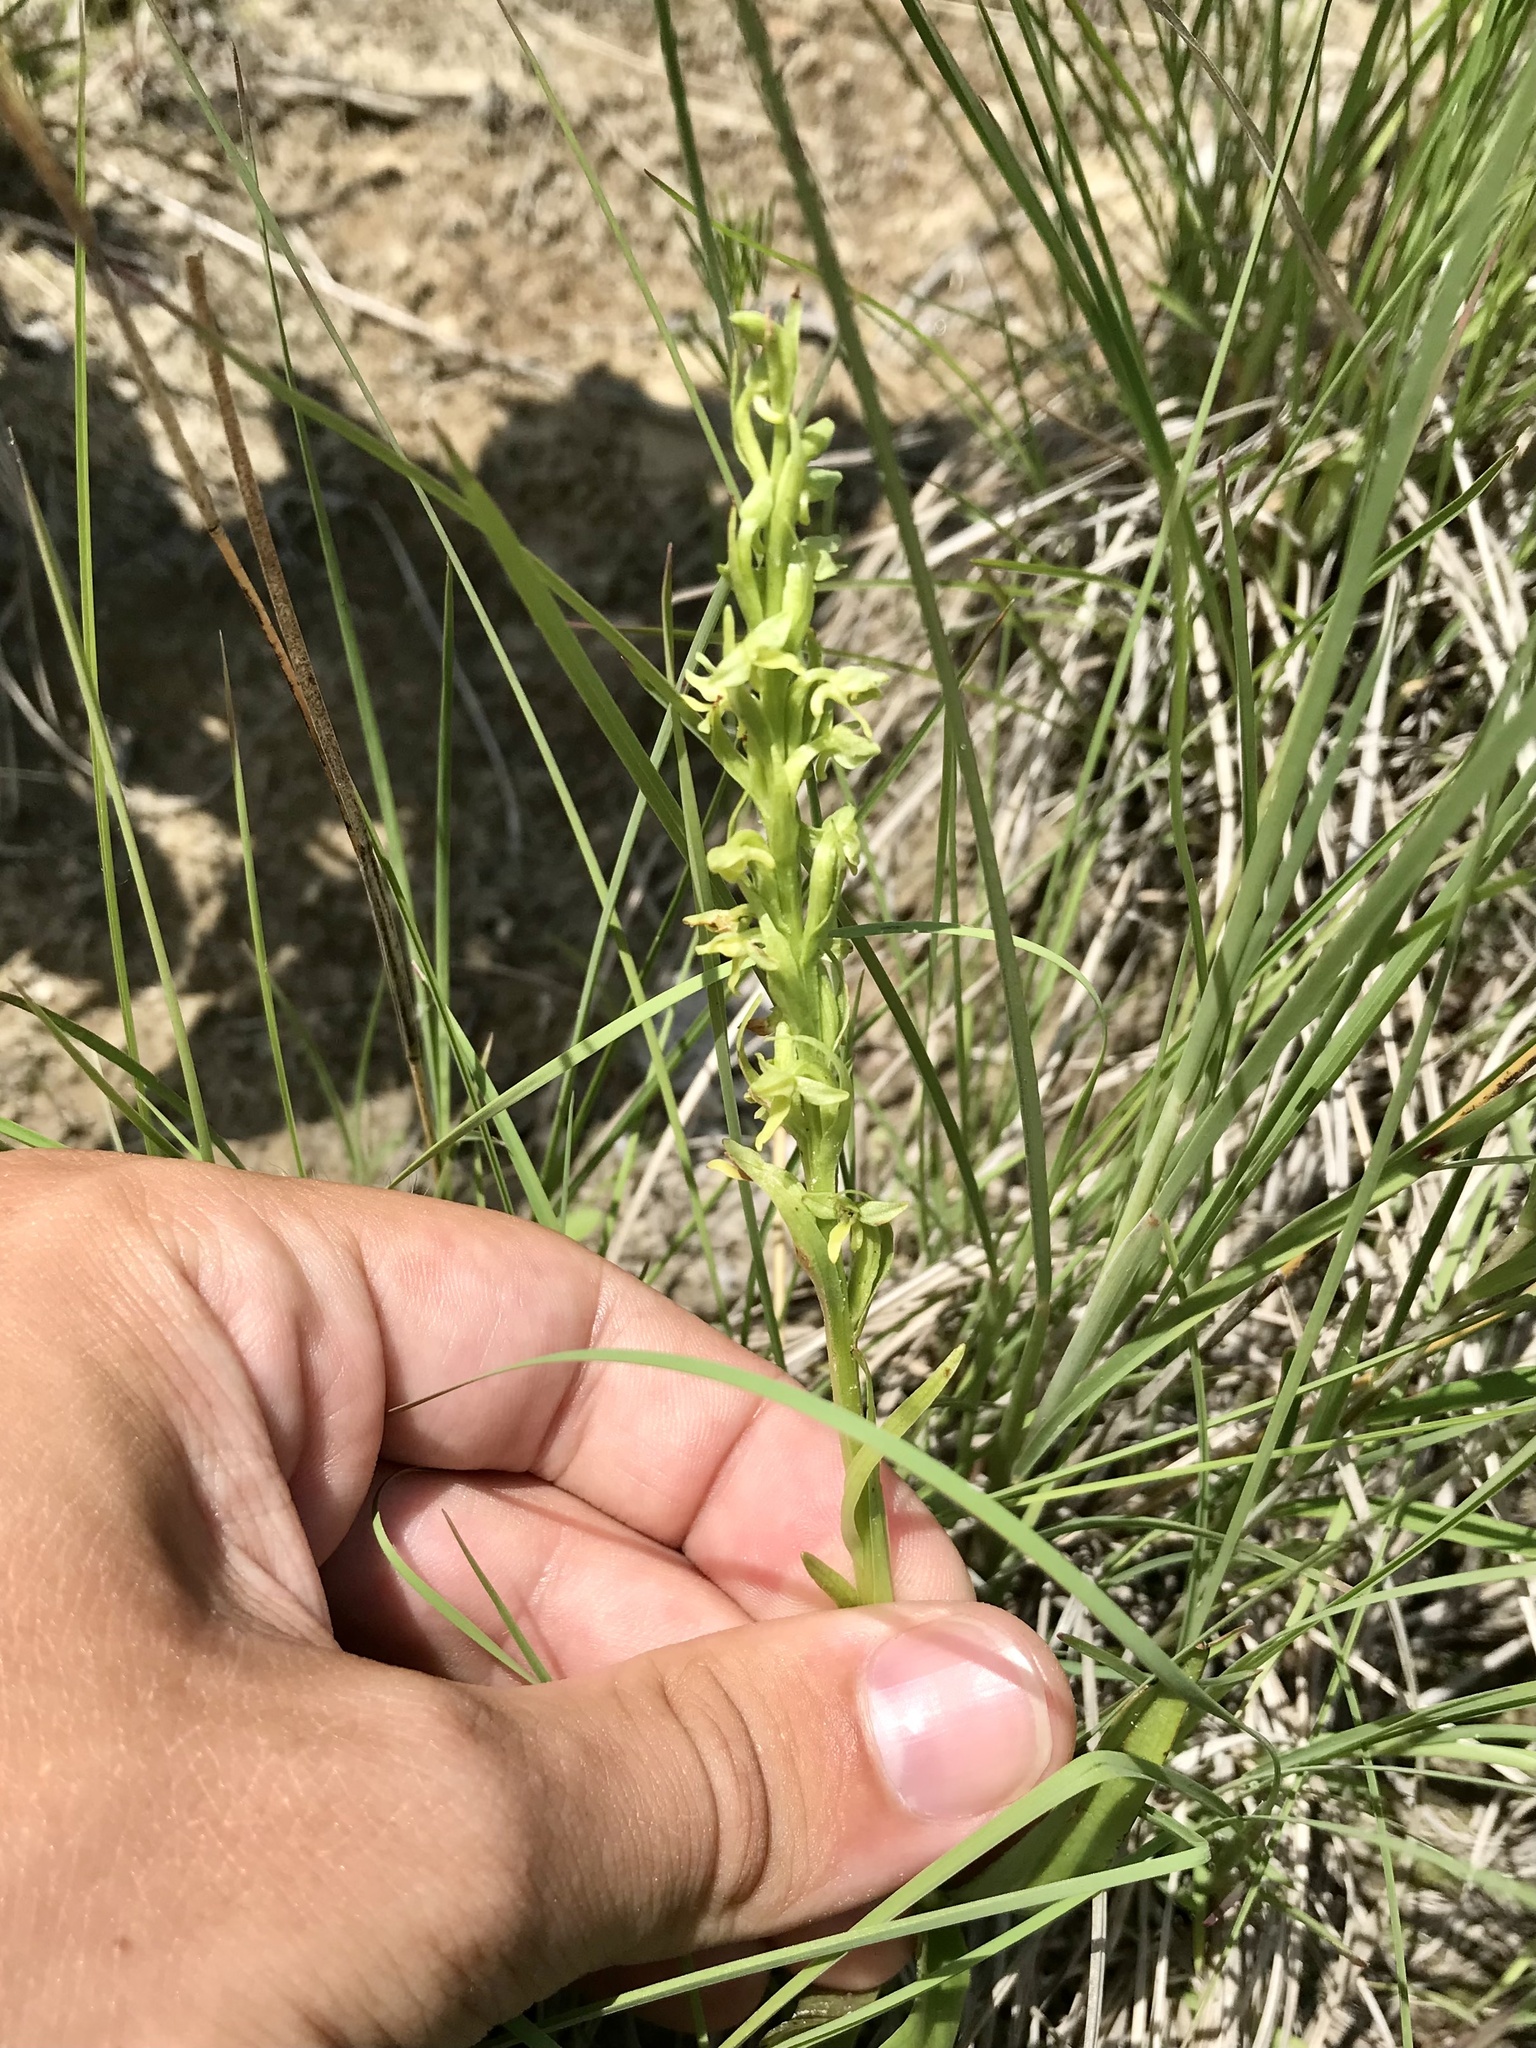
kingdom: Plantae
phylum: Tracheophyta
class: Liliopsida
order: Asparagales
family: Orchidaceae
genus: Platanthera
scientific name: Platanthera aquilonis
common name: Northern green orchid
